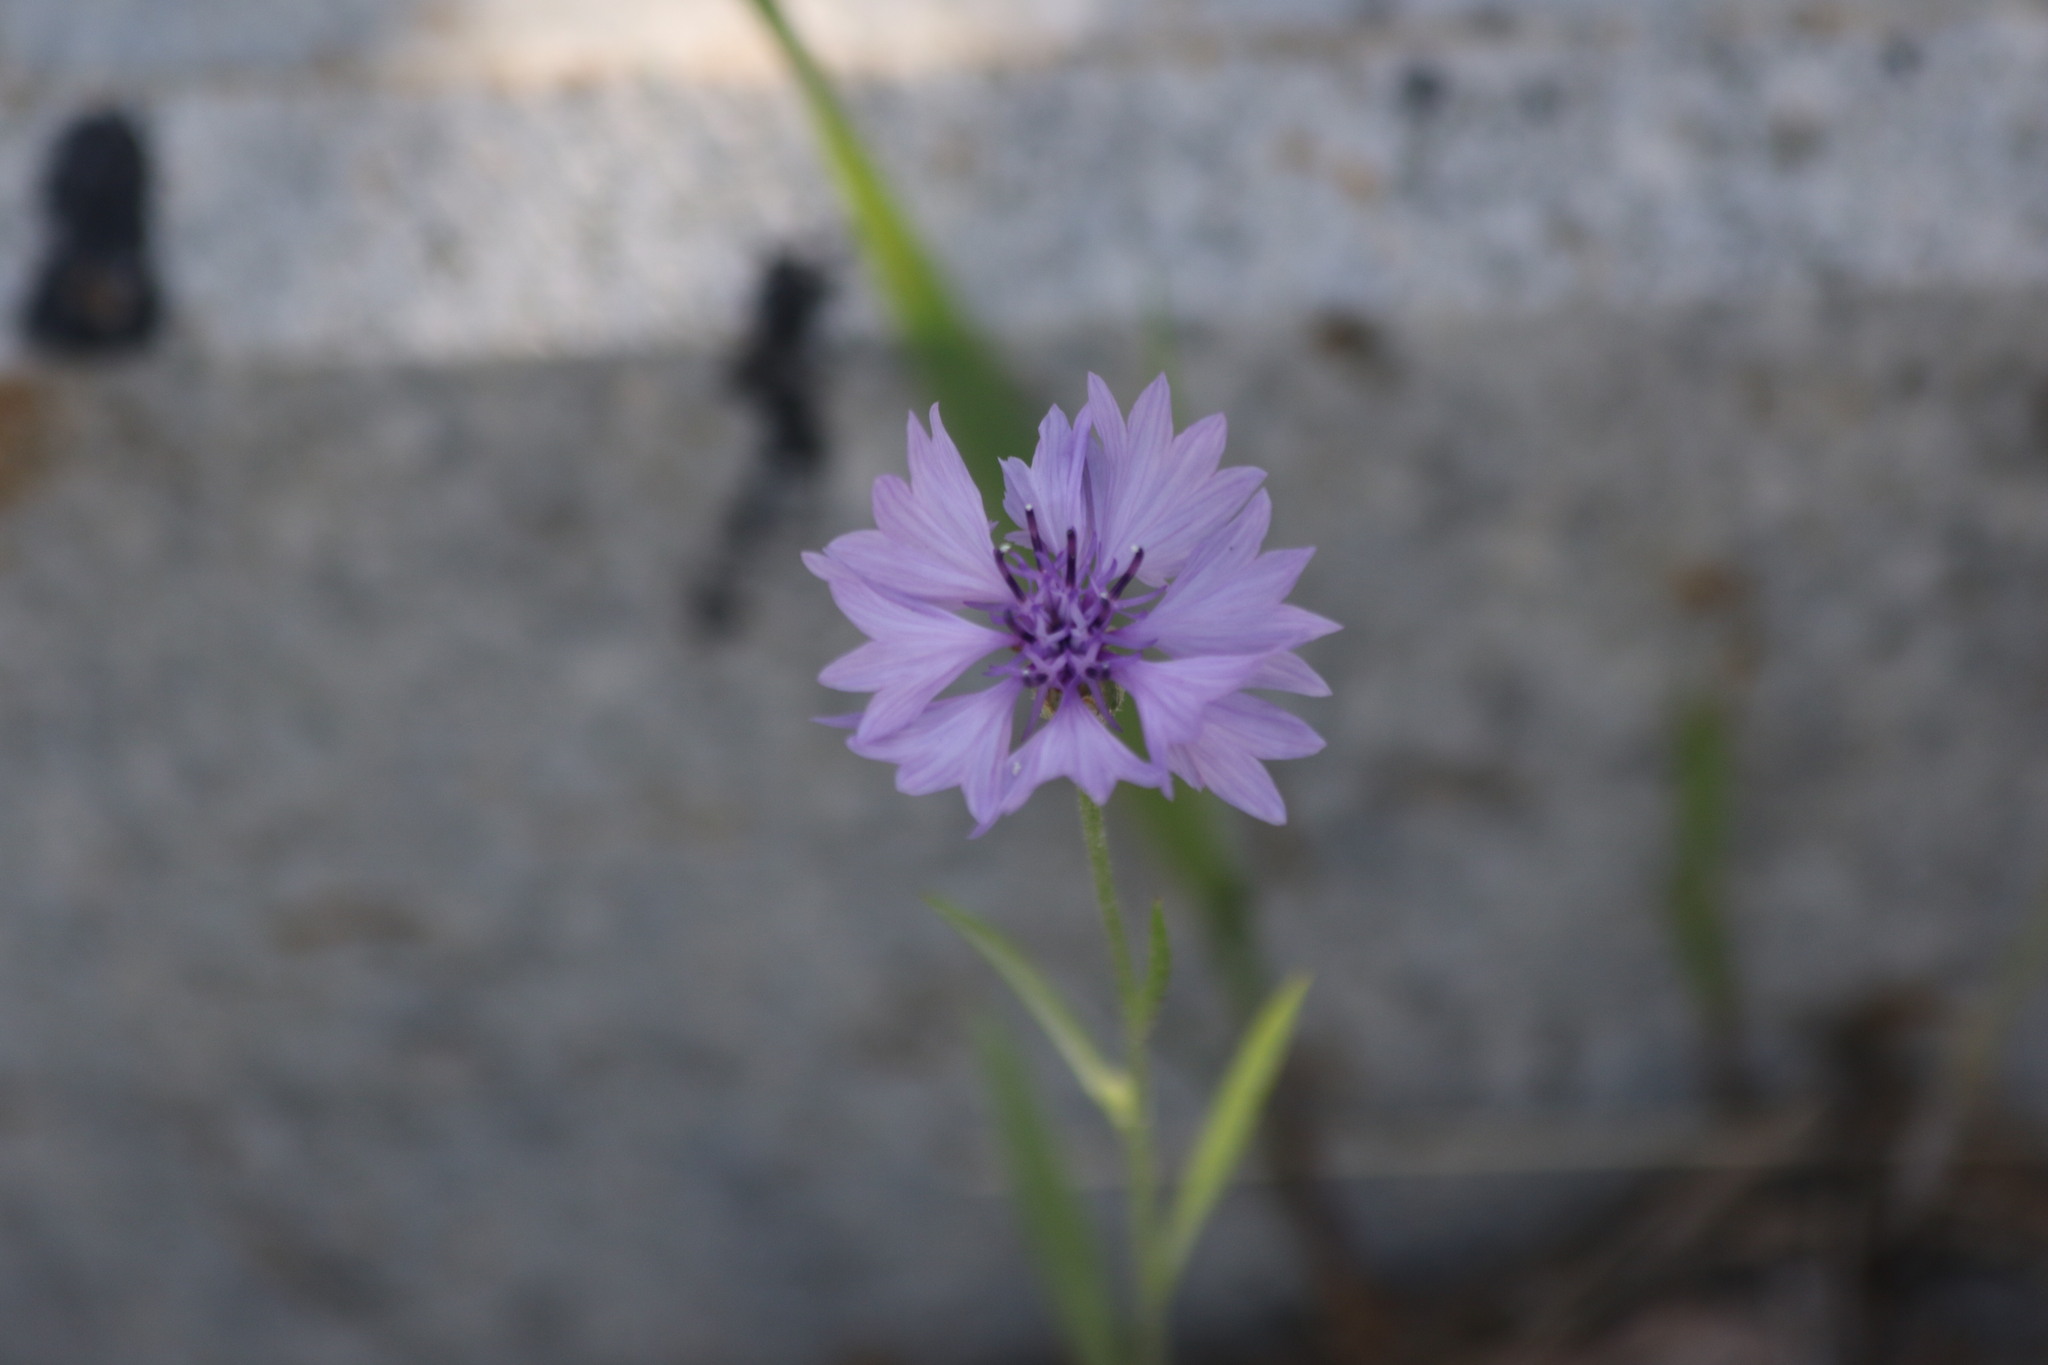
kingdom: Plantae
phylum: Tracheophyta
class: Magnoliopsida
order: Asterales
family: Asteraceae
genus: Centaurea
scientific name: Centaurea cyanus
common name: Cornflower
